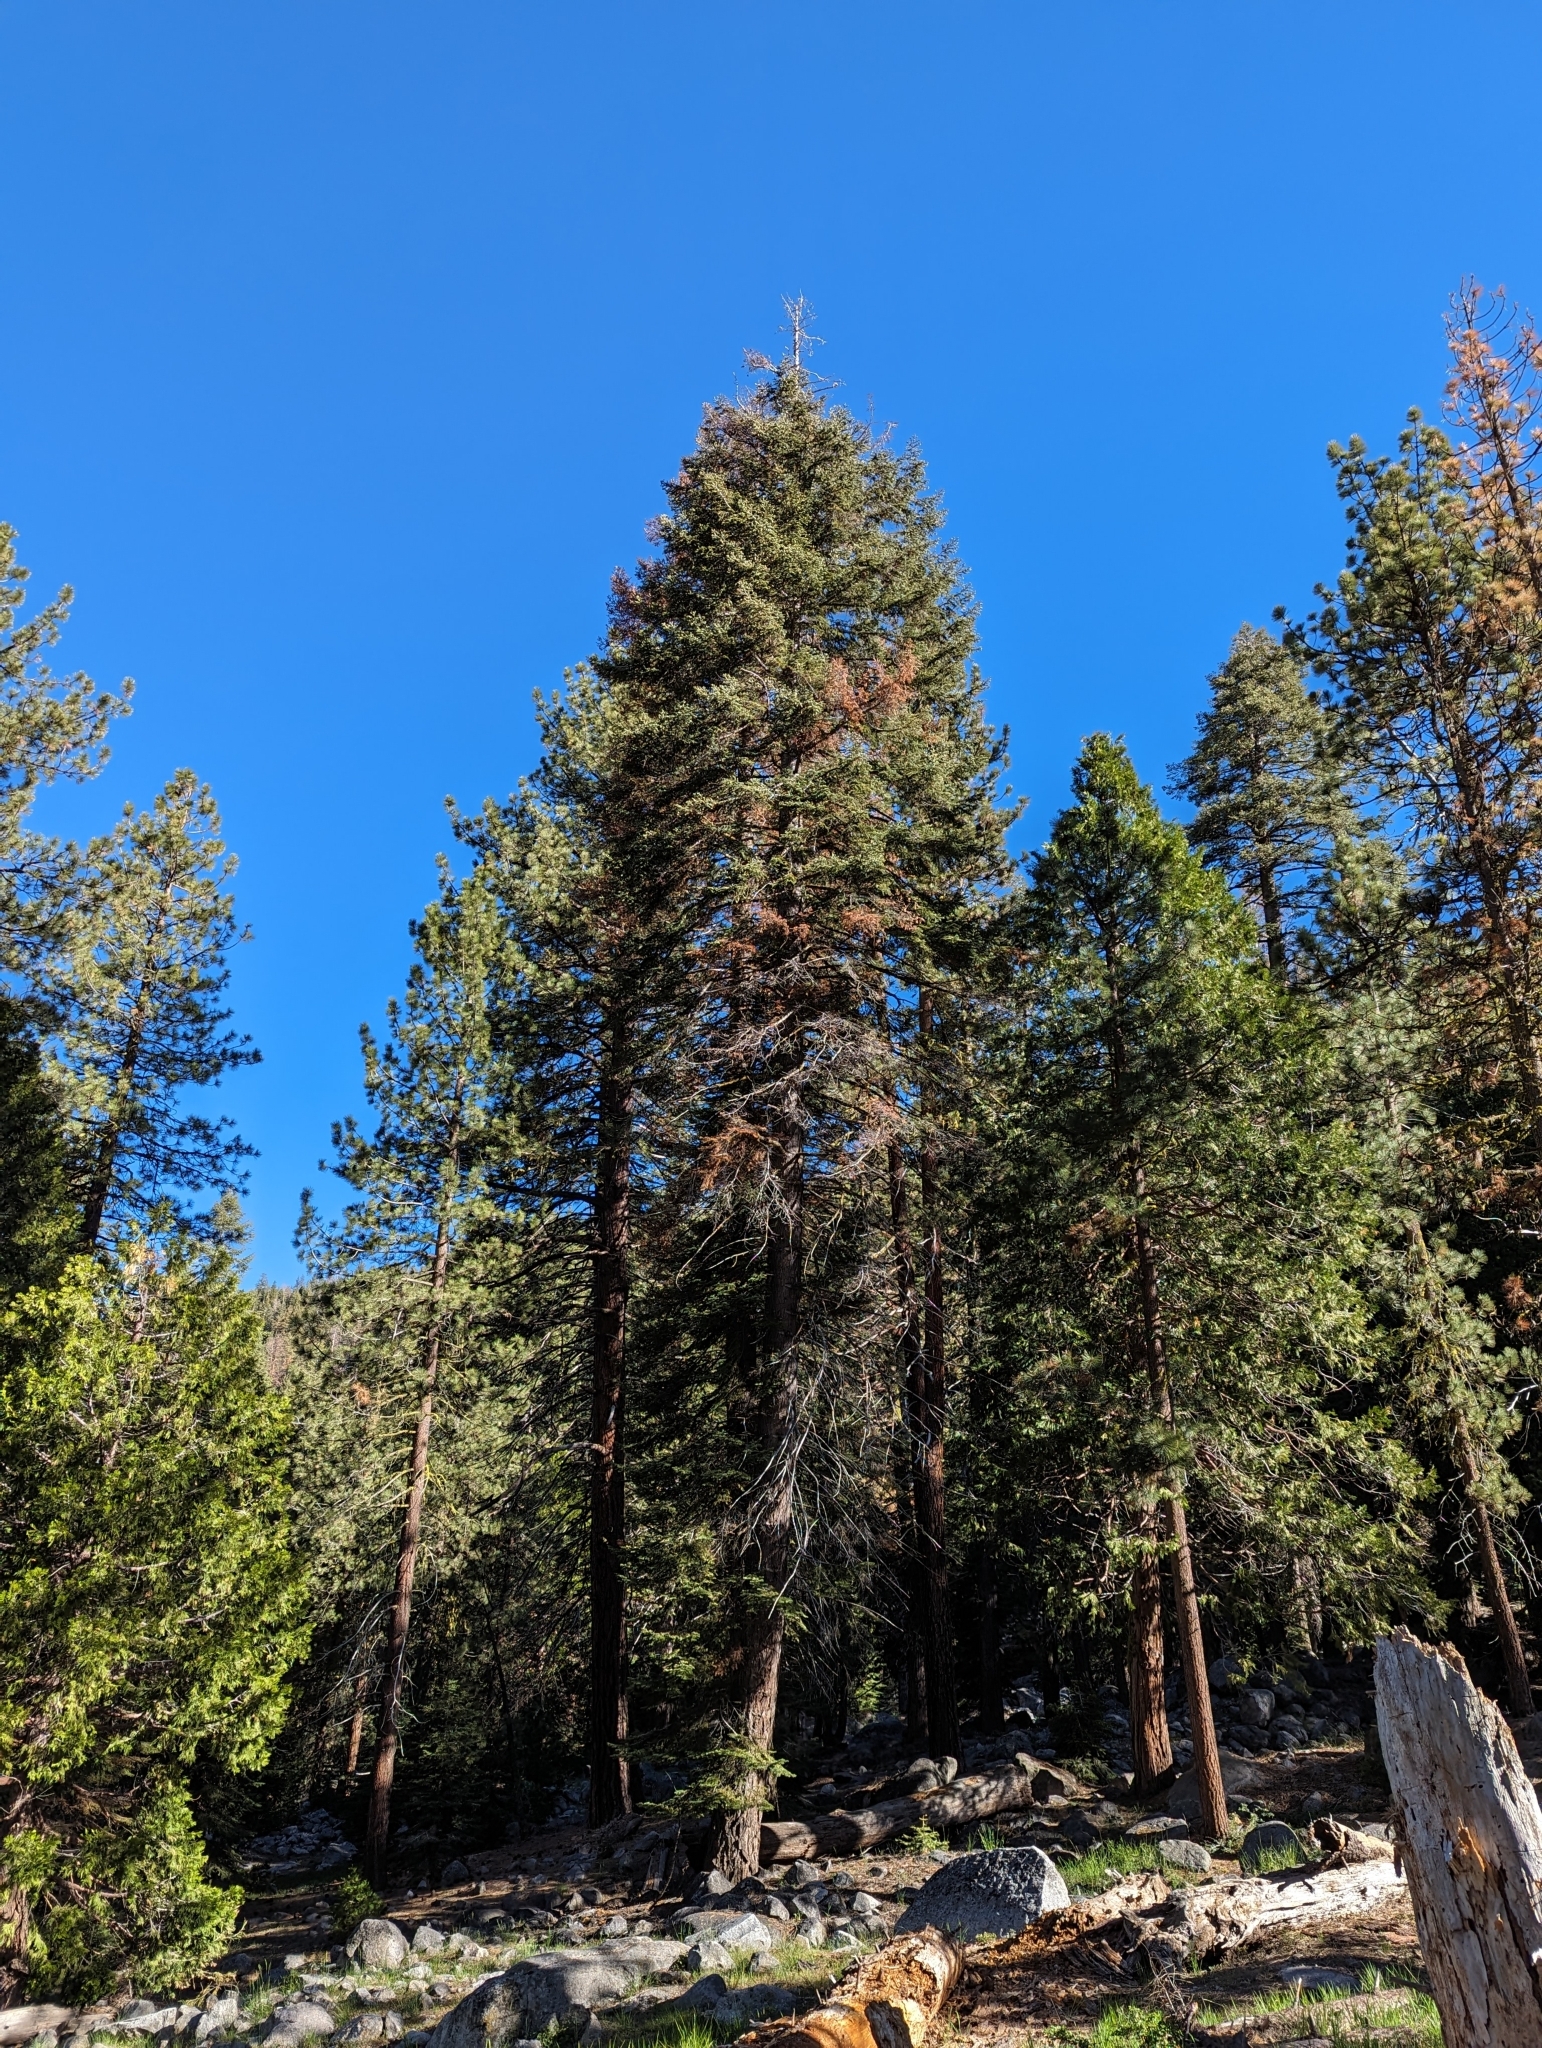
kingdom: Plantae
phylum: Tracheophyta
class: Pinopsida
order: Pinales
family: Pinaceae
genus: Abies
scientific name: Abies concolor
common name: Colorado fir
